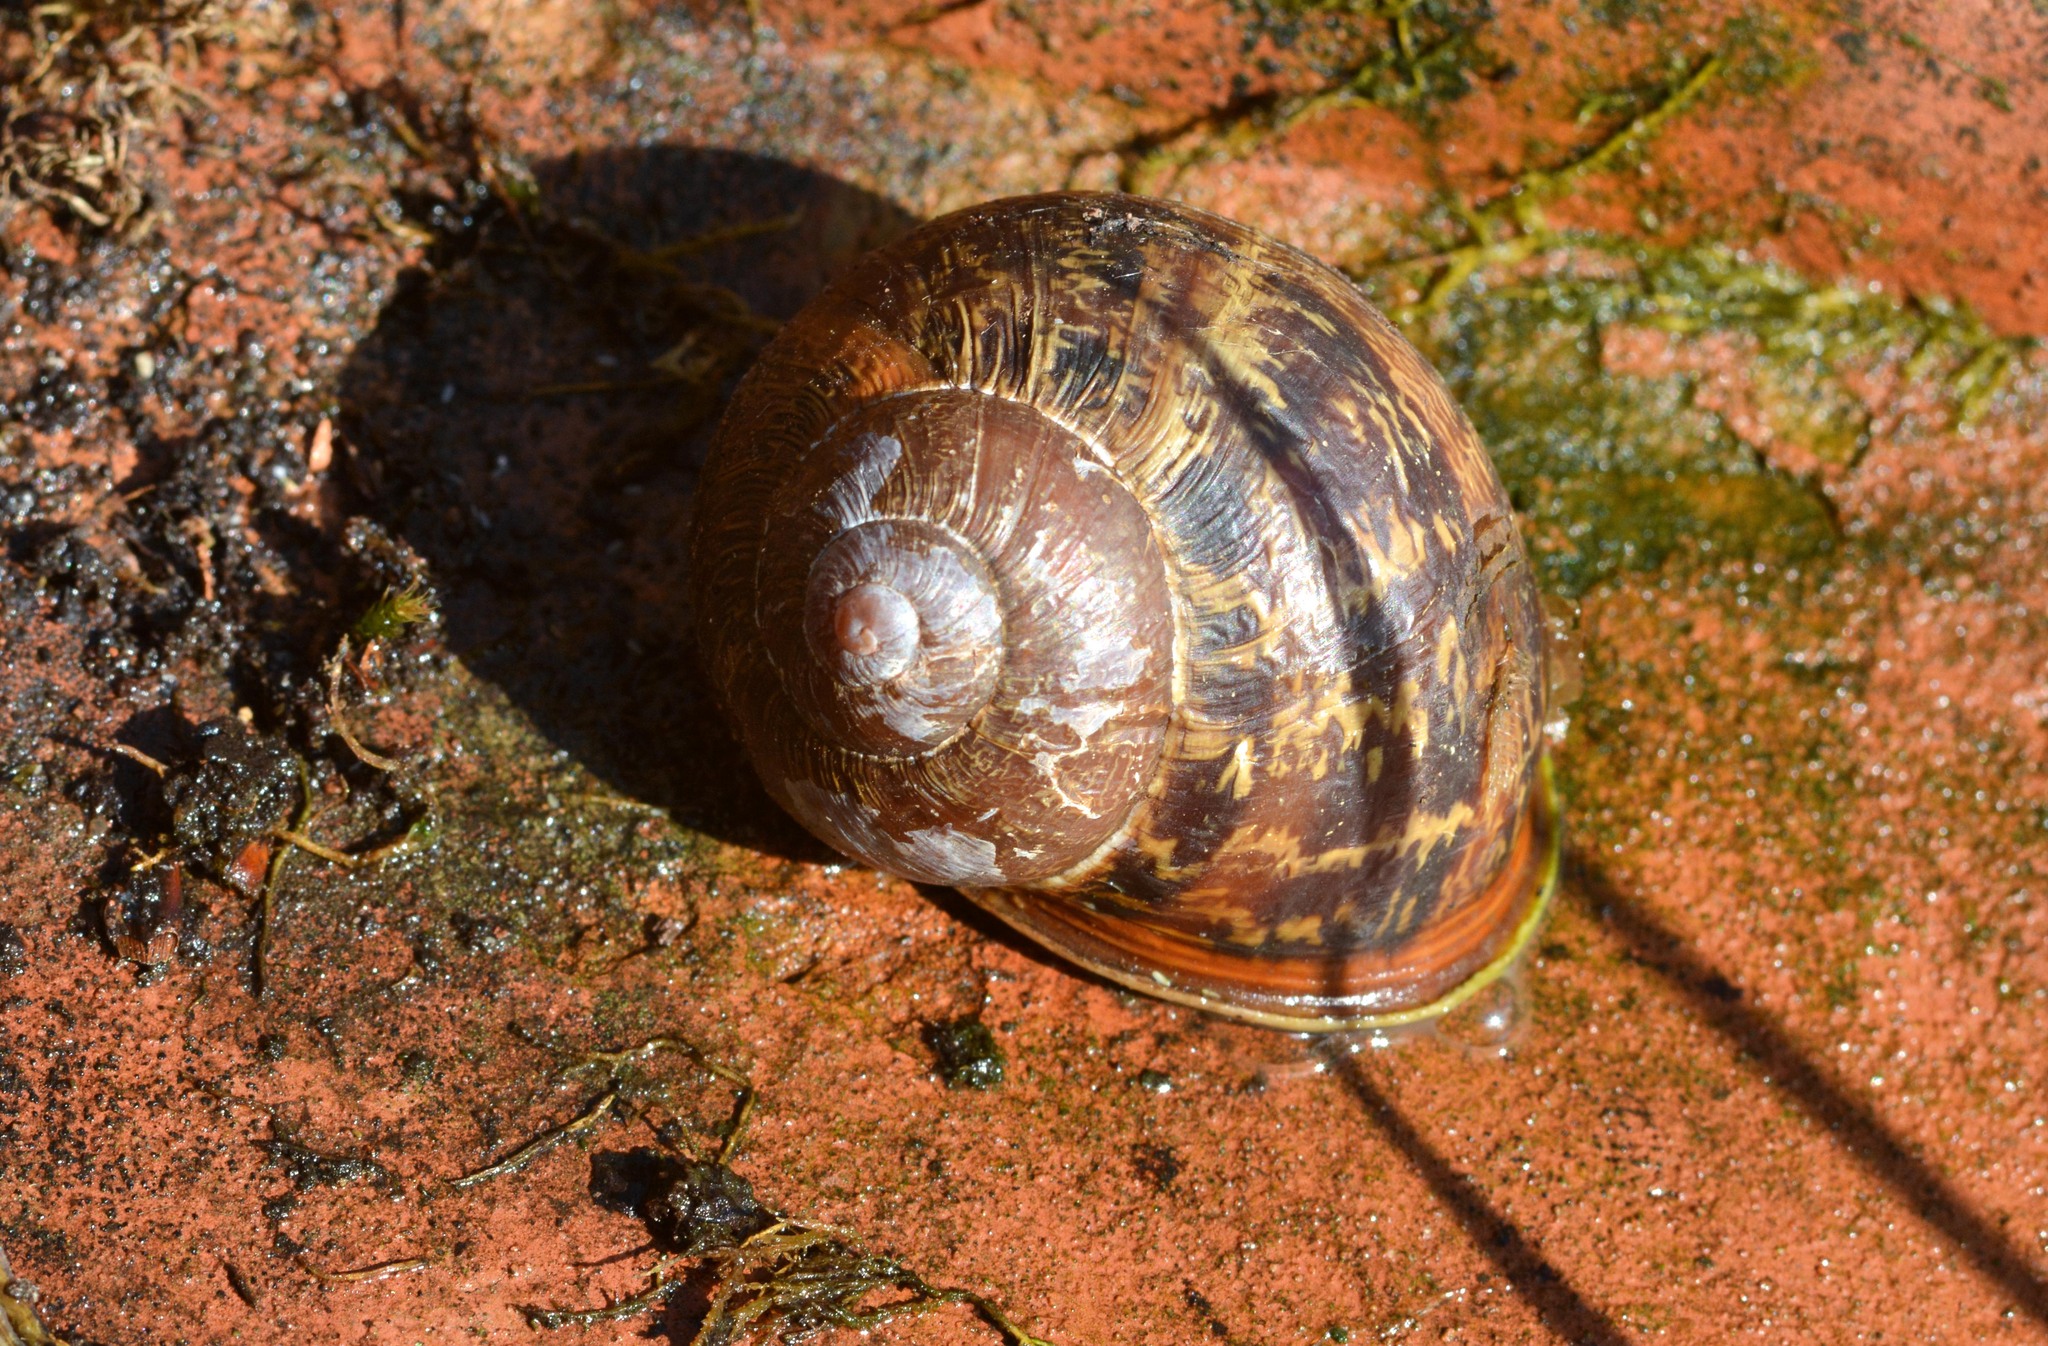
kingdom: Animalia
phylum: Mollusca
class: Gastropoda
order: Stylommatophora
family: Helicidae
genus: Cornu
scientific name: Cornu aspersum
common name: Brown garden snail
